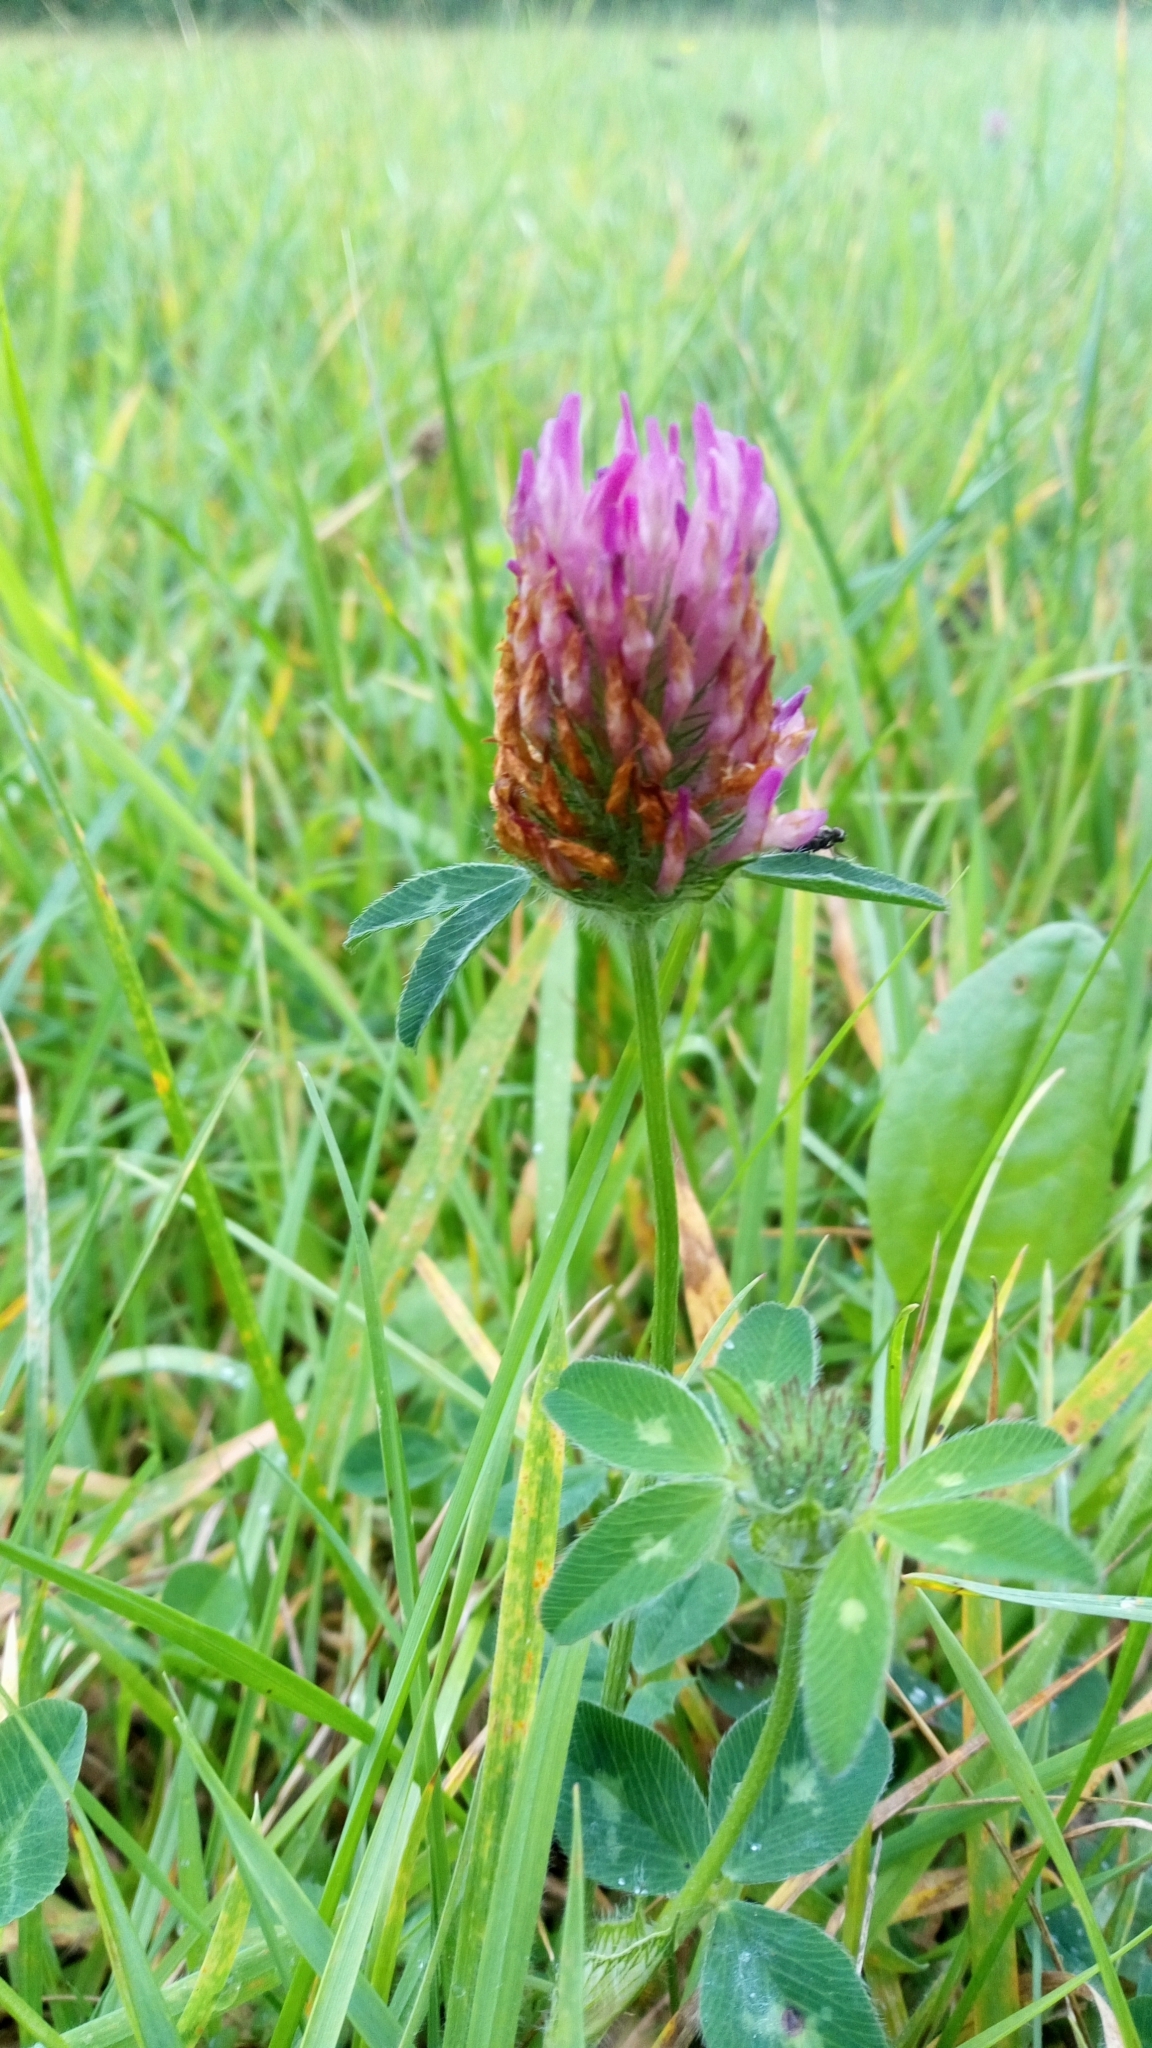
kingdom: Plantae
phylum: Tracheophyta
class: Magnoliopsida
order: Fabales
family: Fabaceae
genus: Trifolium
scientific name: Trifolium pratense
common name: Red clover
